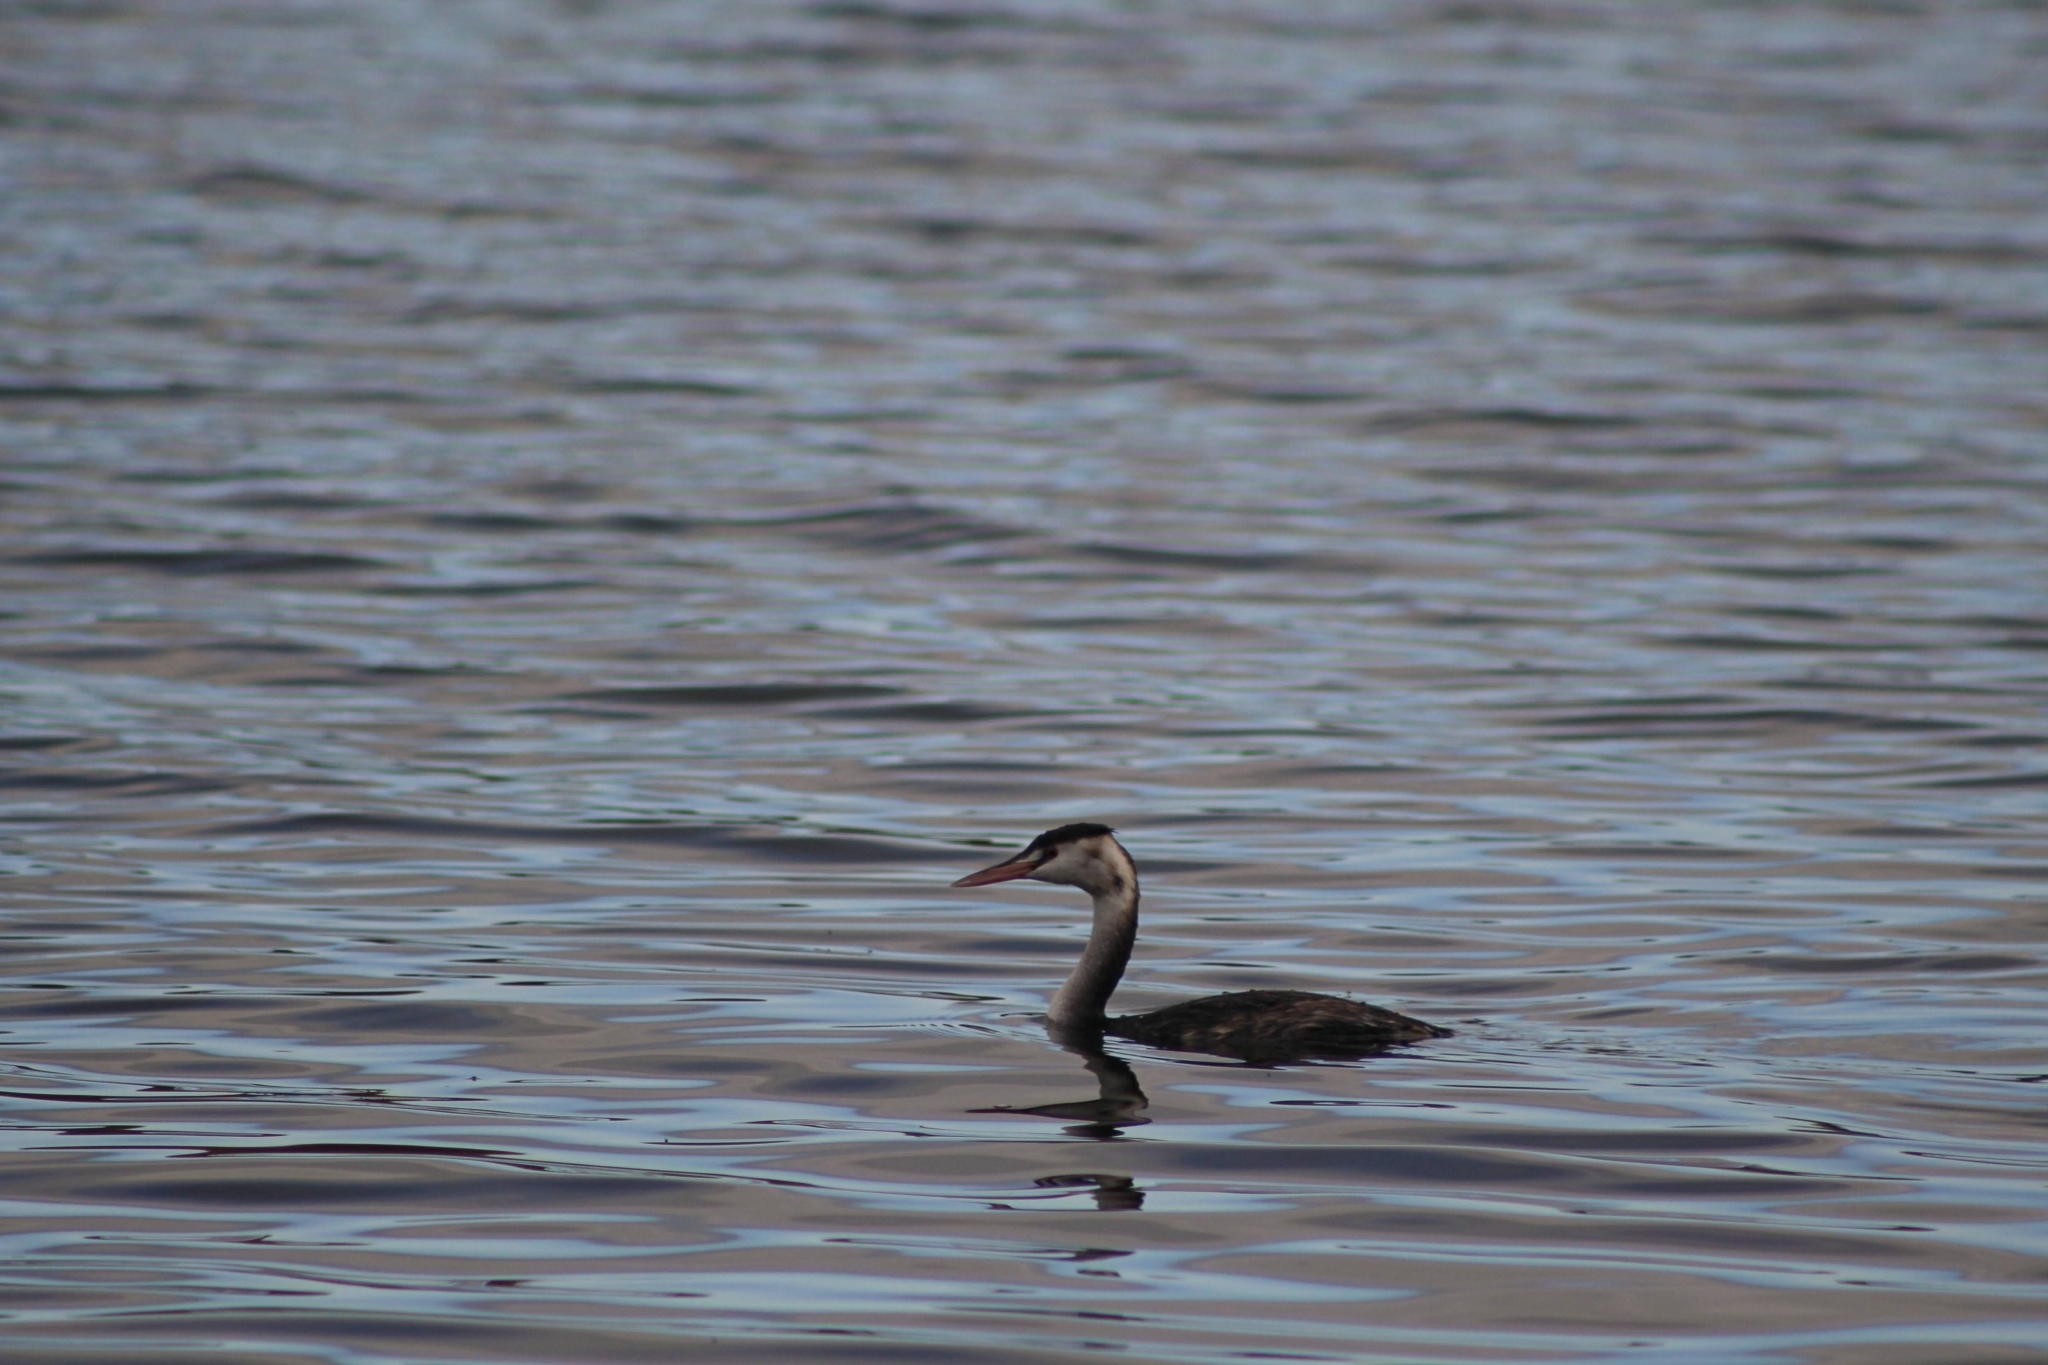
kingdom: Animalia
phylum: Chordata
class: Aves
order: Podicipediformes
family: Podicipedidae
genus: Podiceps
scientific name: Podiceps cristatus
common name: Great crested grebe
